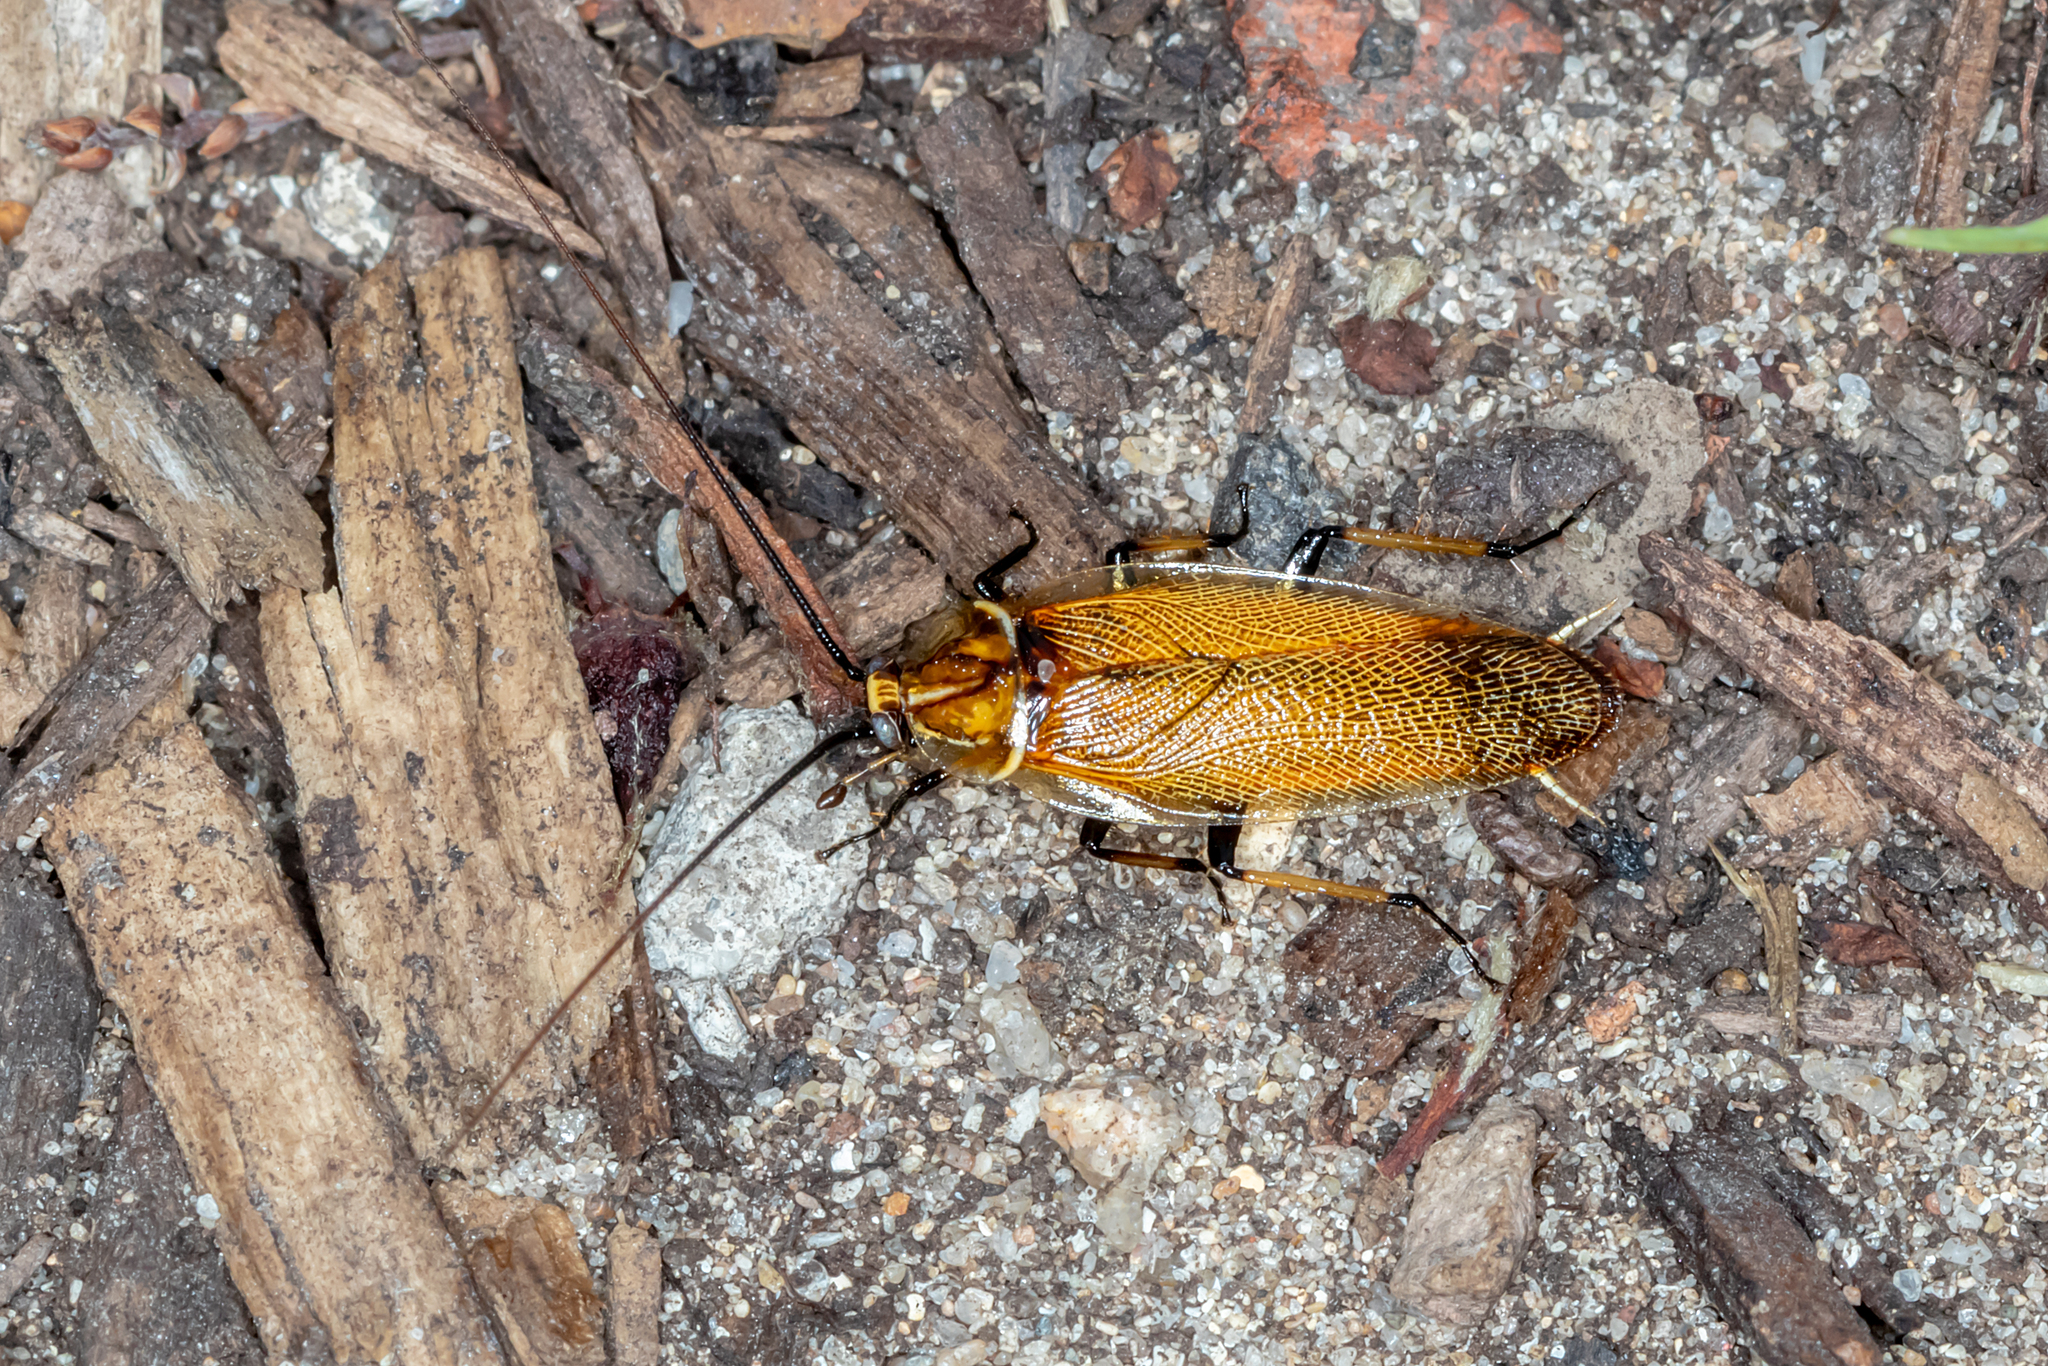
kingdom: Animalia
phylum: Arthropoda
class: Insecta
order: Blattodea
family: Ectobiidae
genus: Balta
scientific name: Balta bicolor
